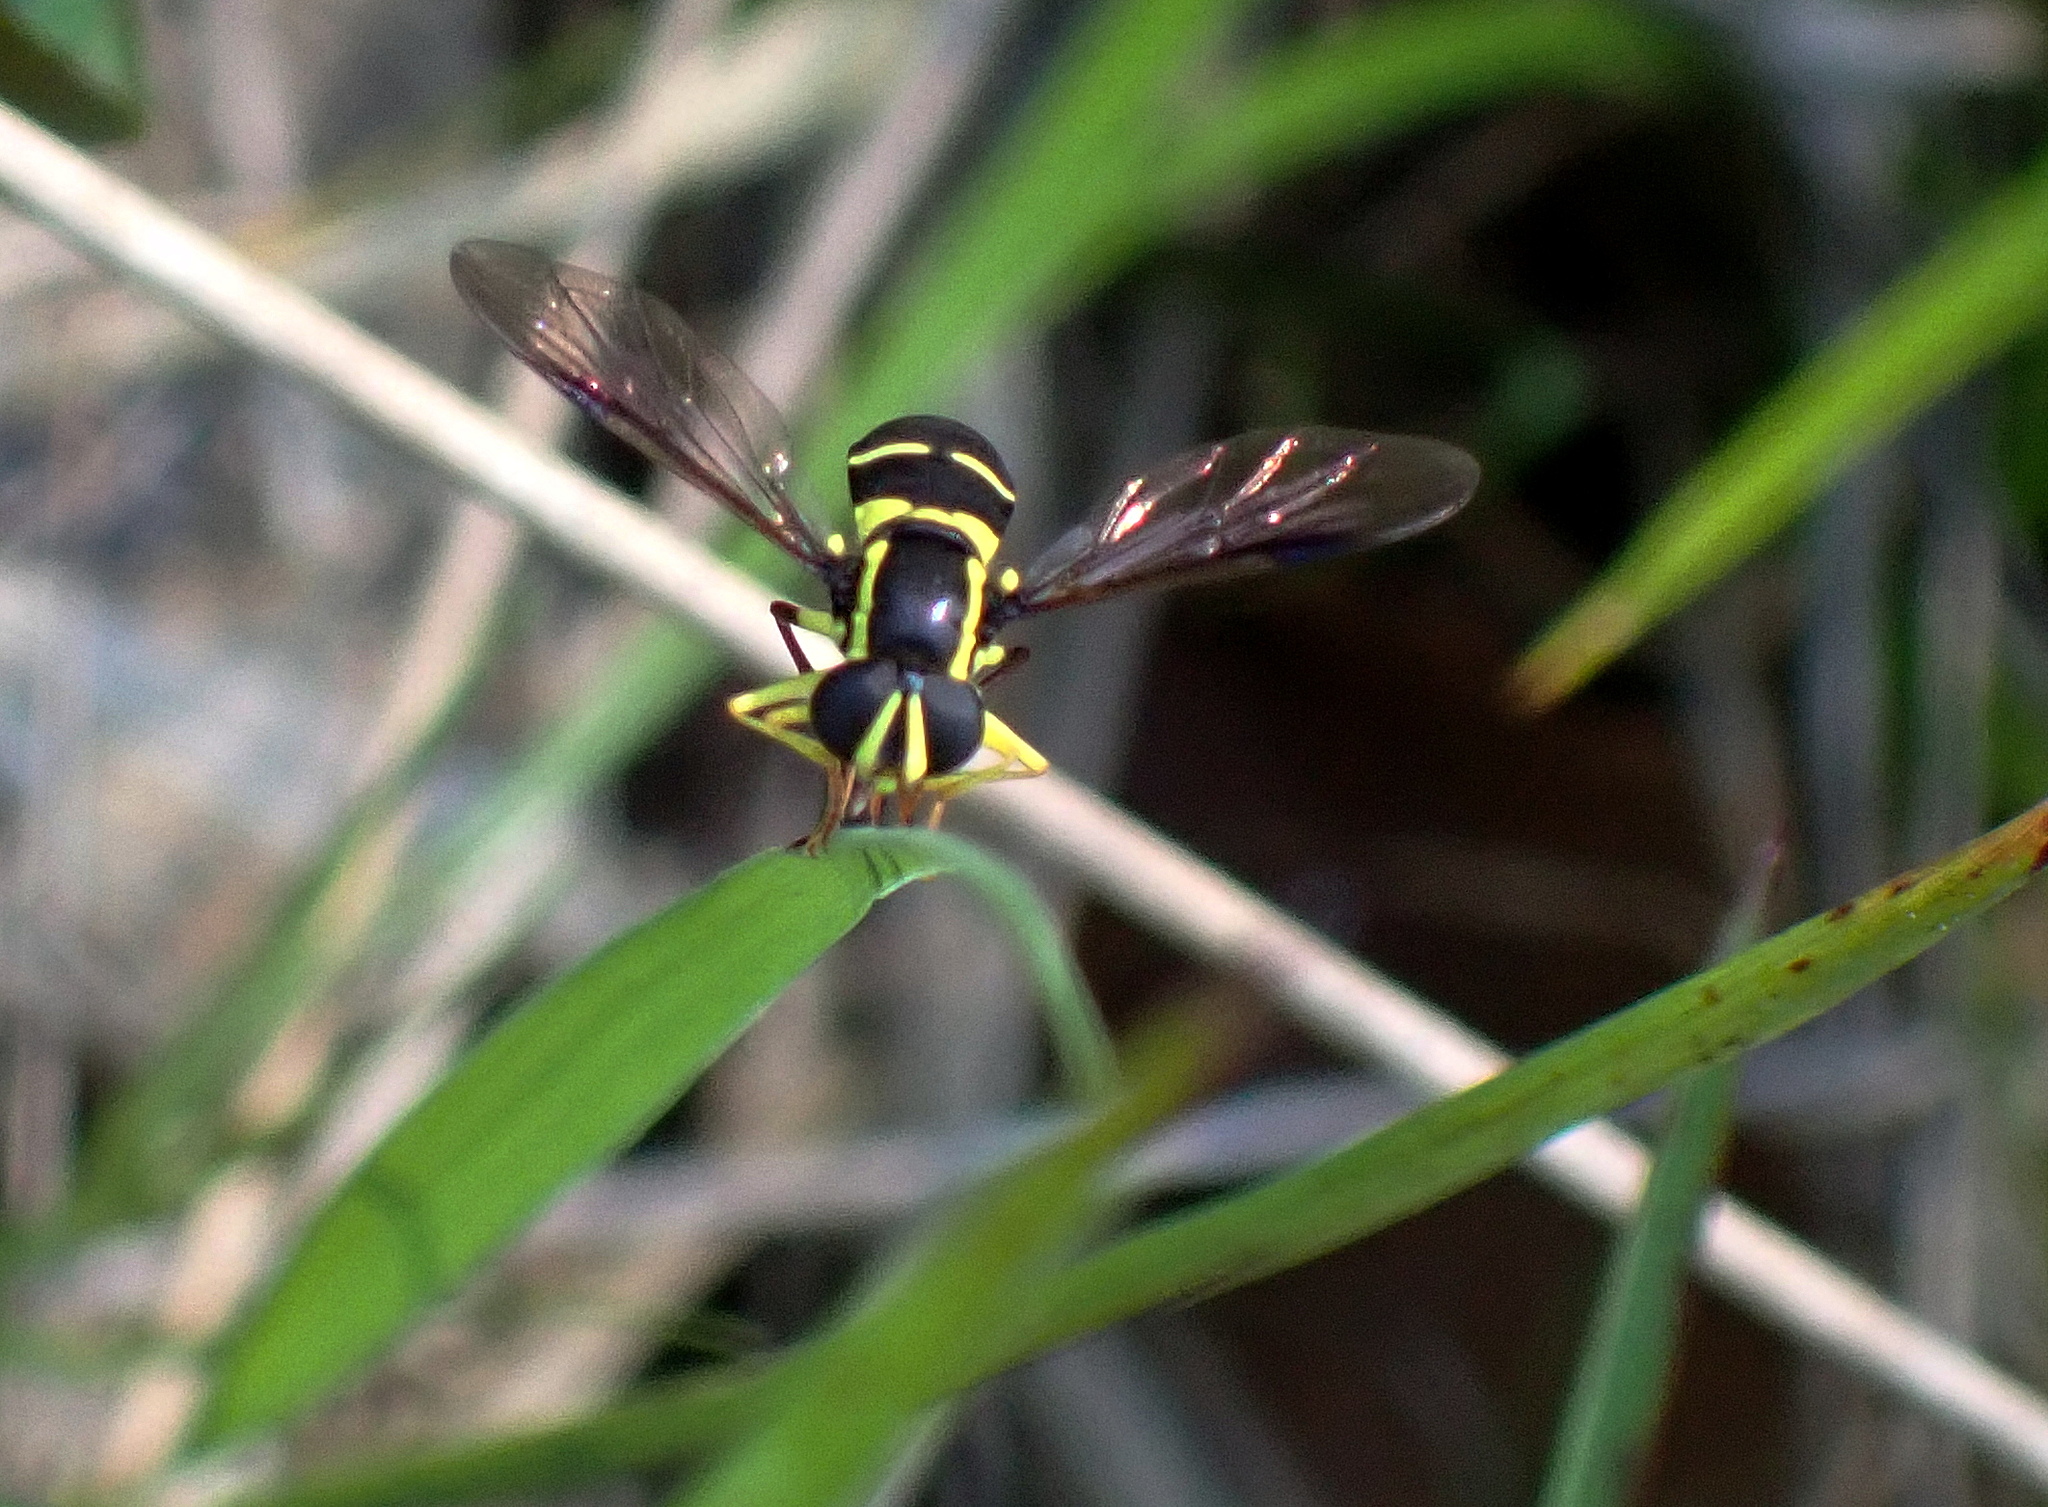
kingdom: Animalia
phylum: Arthropoda
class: Insecta
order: Diptera
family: Syrphidae
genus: Philhelius
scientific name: Philhelius pedissequum
